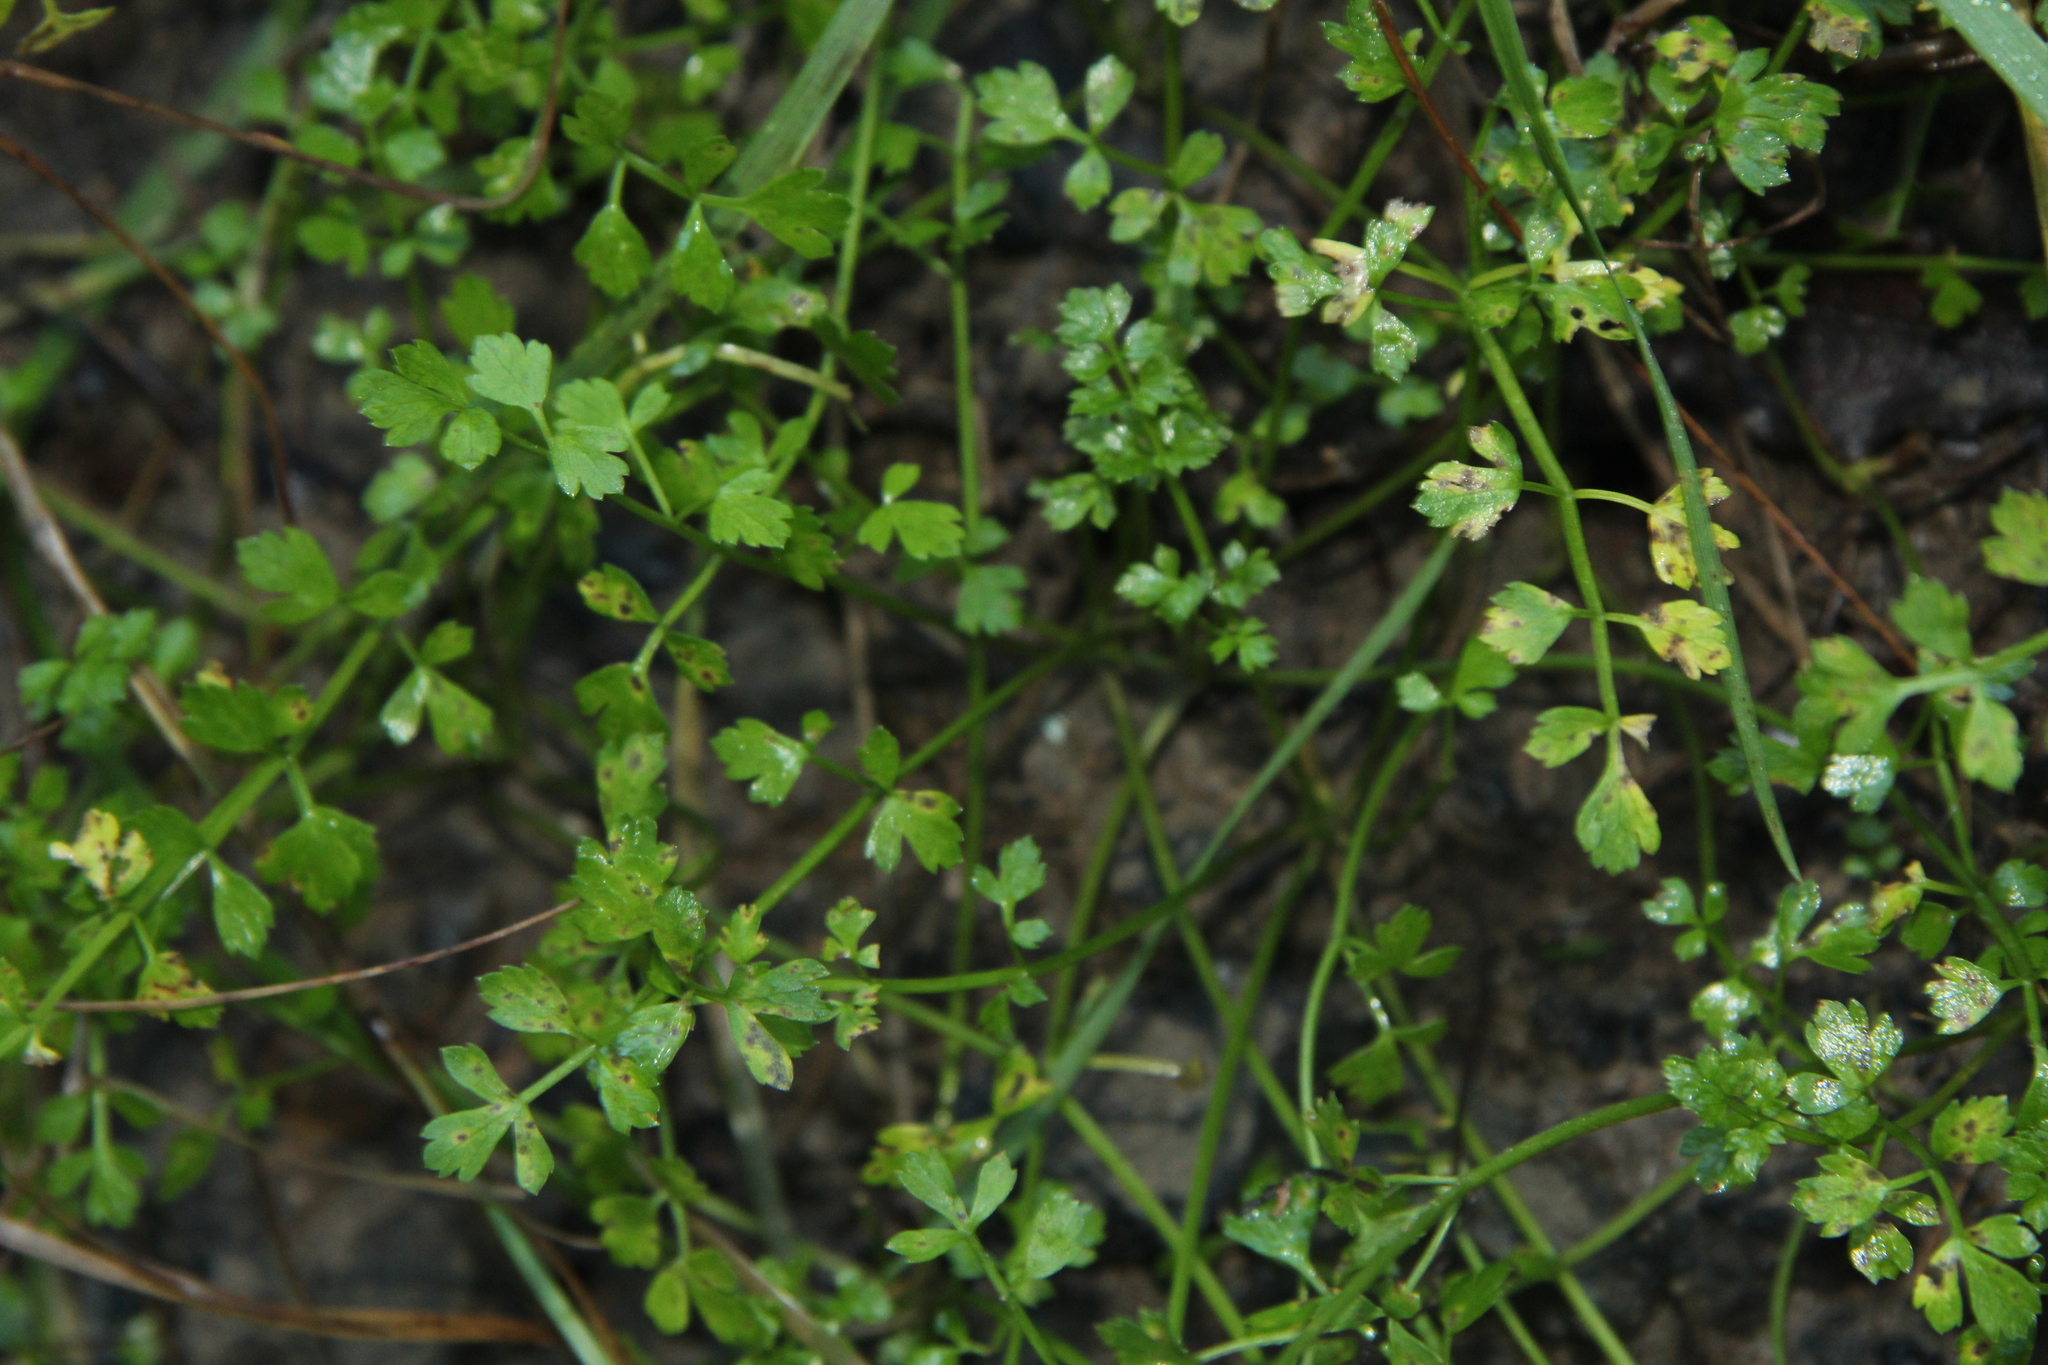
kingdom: Plantae
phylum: Tracheophyta
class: Magnoliopsida
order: Apiales
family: Apiaceae
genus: Apium
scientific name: Apium prostratum
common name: Prostrate marshwort
